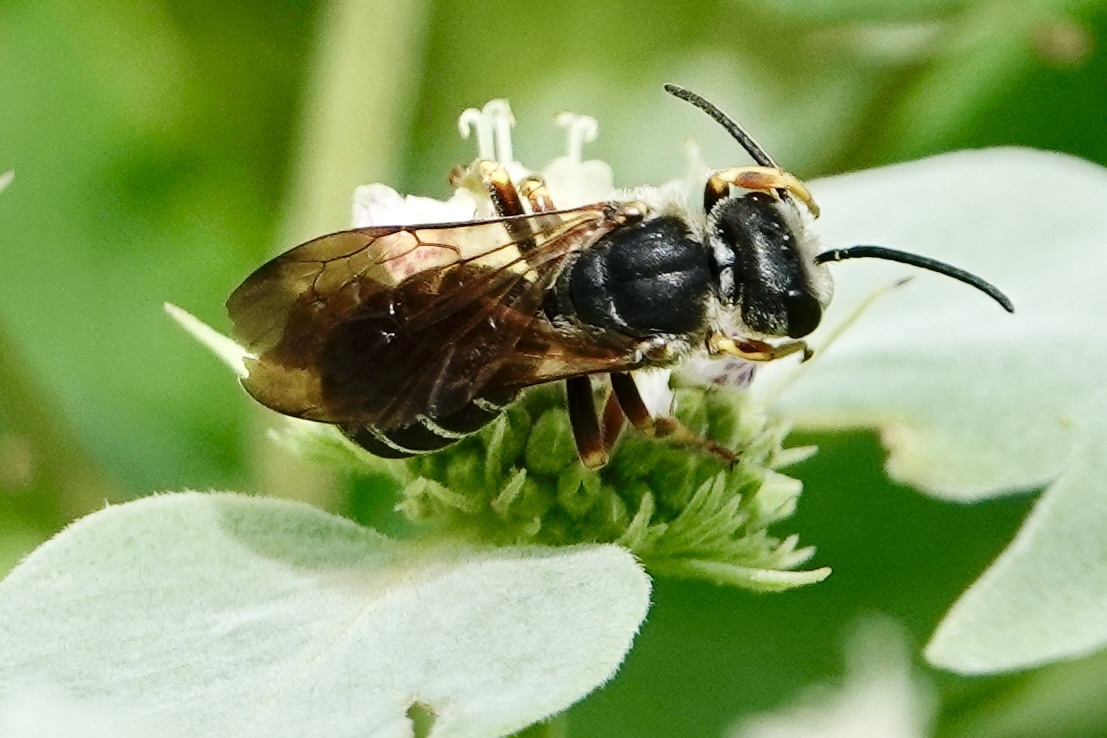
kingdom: Animalia
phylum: Arthropoda
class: Insecta
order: Hymenoptera
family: Halictidae
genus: Halictus
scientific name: Halictus parallelus
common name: Parallel-striped sweat bee
